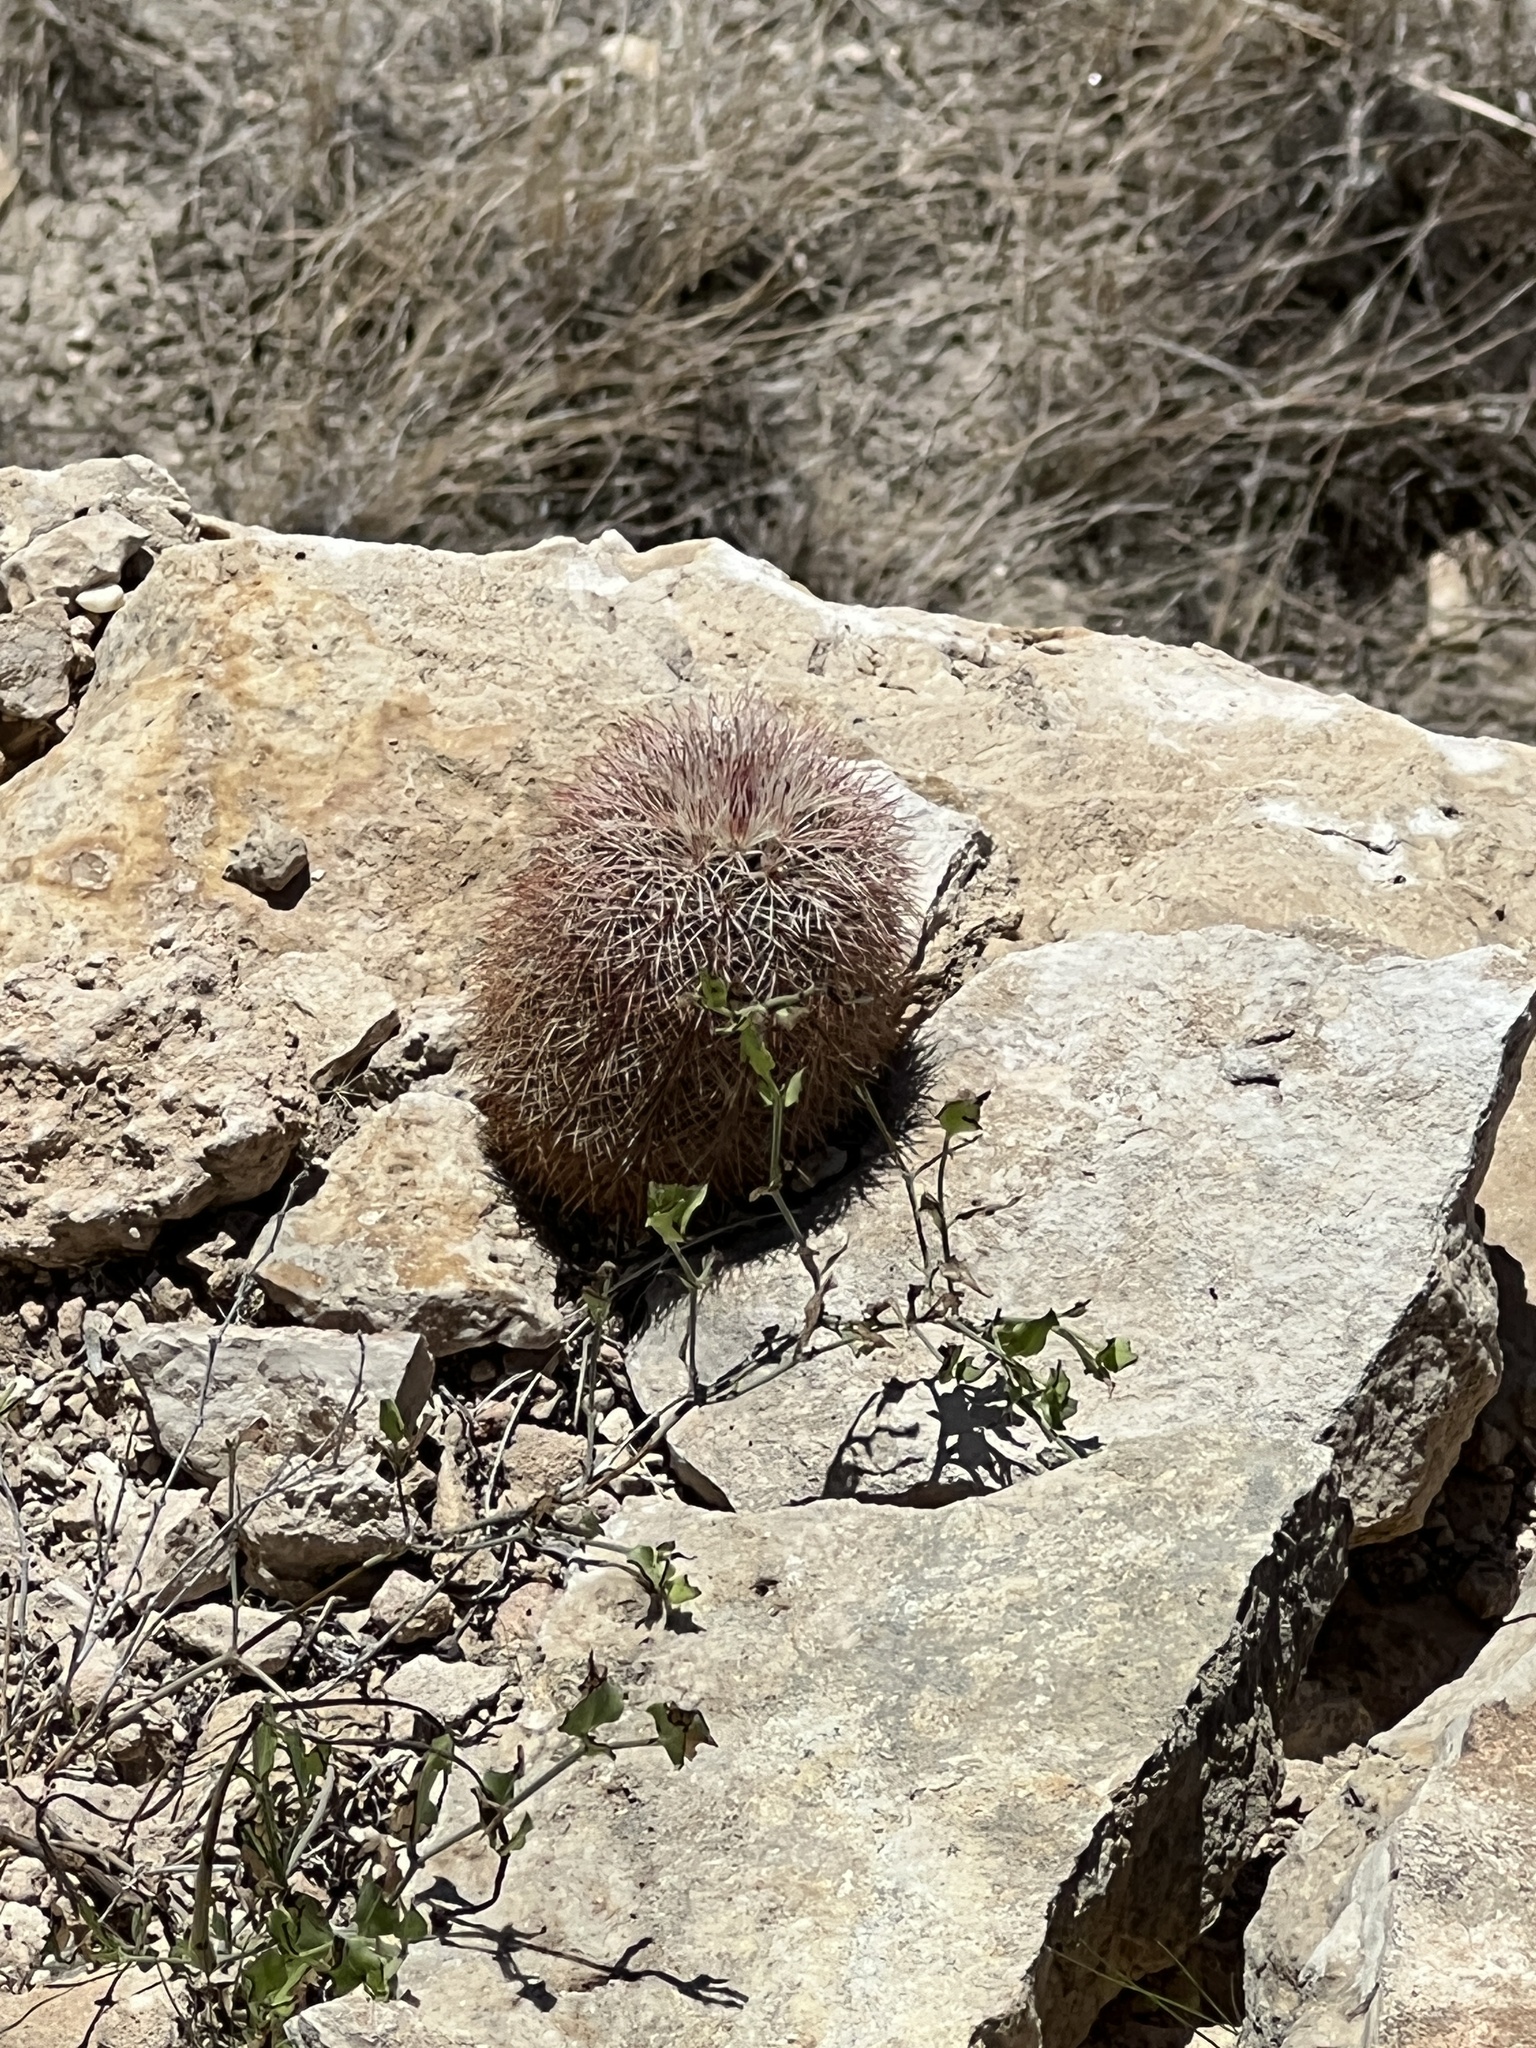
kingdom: Plantae
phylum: Tracheophyta
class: Magnoliopsida
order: Caryophyllales
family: Cactaceae
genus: Echinocereus
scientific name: Echinocereus dasyacanthus
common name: Spiny hedgehog cactus
